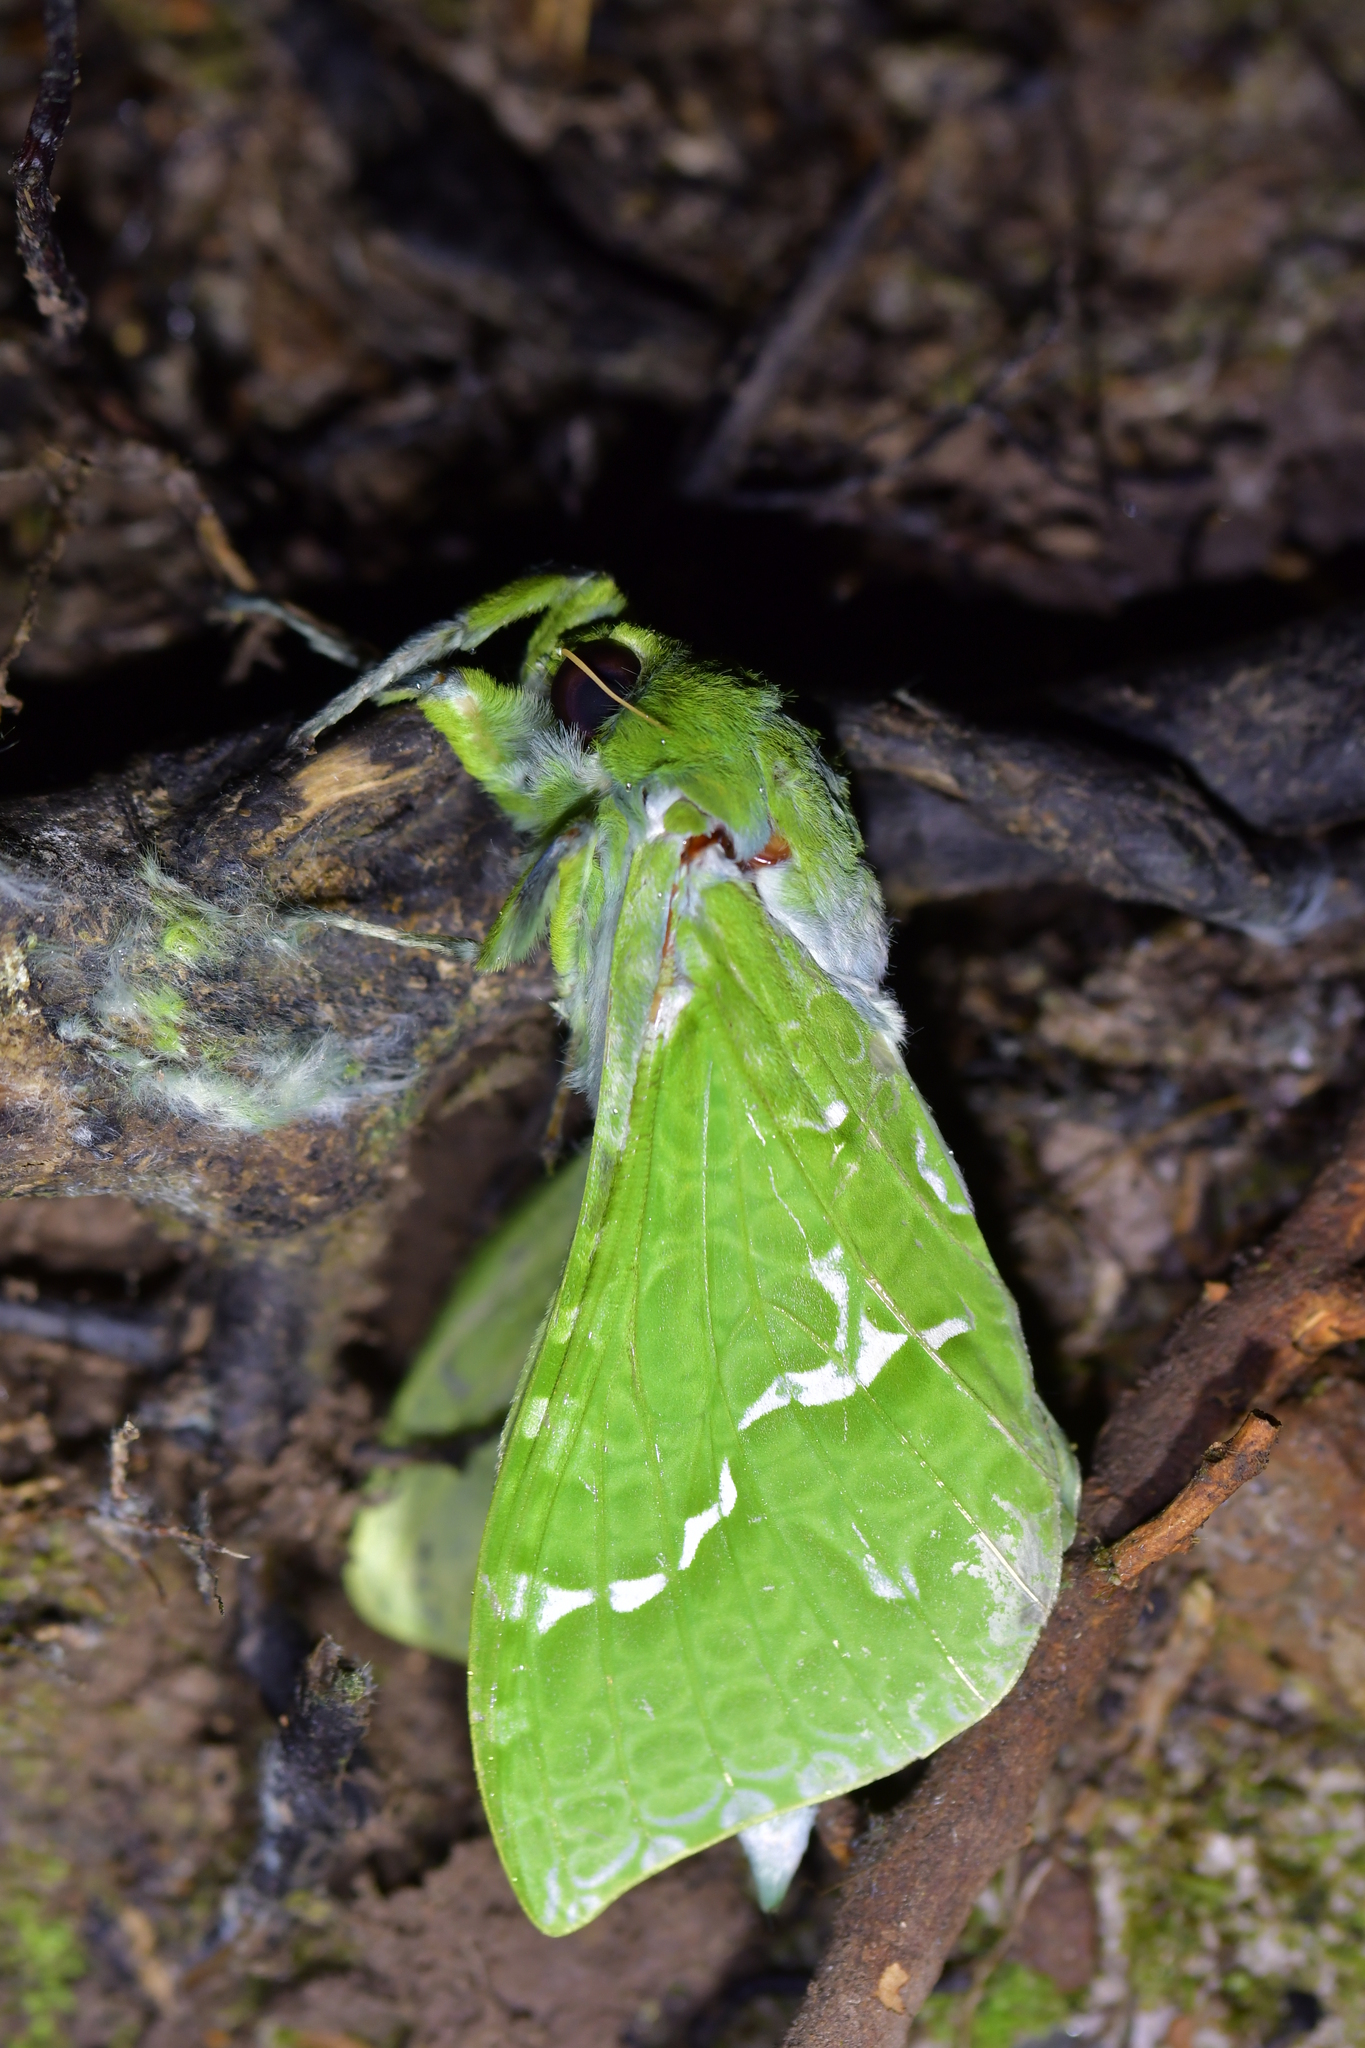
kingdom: Animalia
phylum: Arthropoda
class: Insecta
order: Lepidoptera
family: Hepialidae
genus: Aenetus
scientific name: Aenetus virescens
